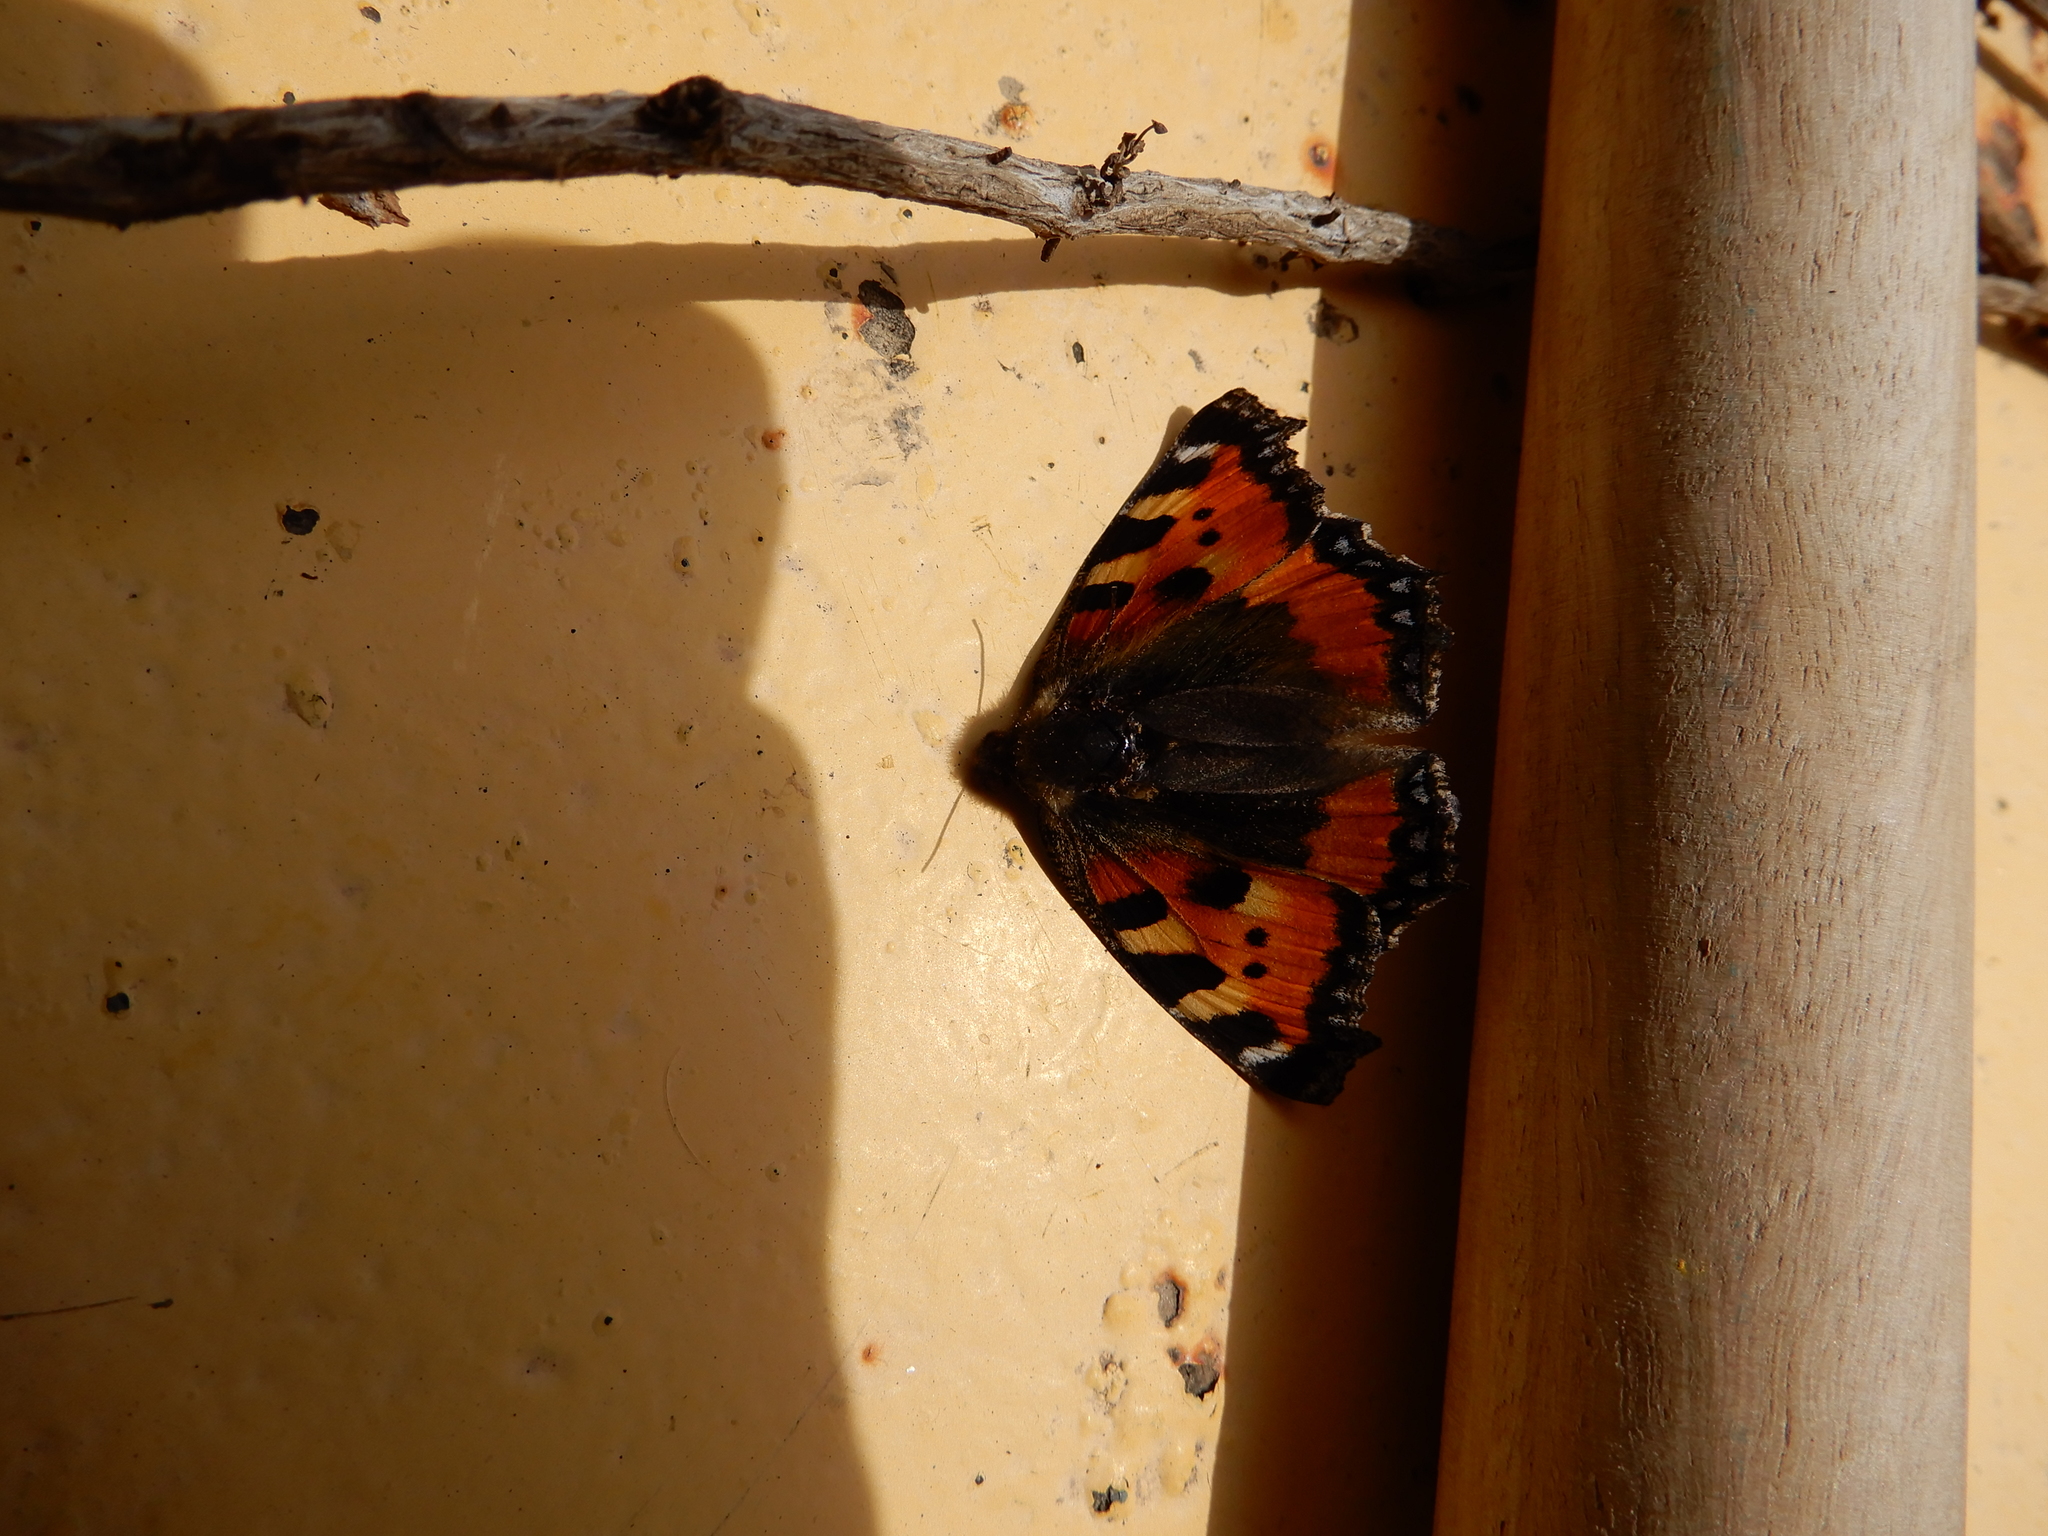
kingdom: Animalia
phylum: Arthropoda
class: Insecta
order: Lepidoptera
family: Nymphalidae
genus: Aglais
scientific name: Aglais urticae
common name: Small tortoiseshell
